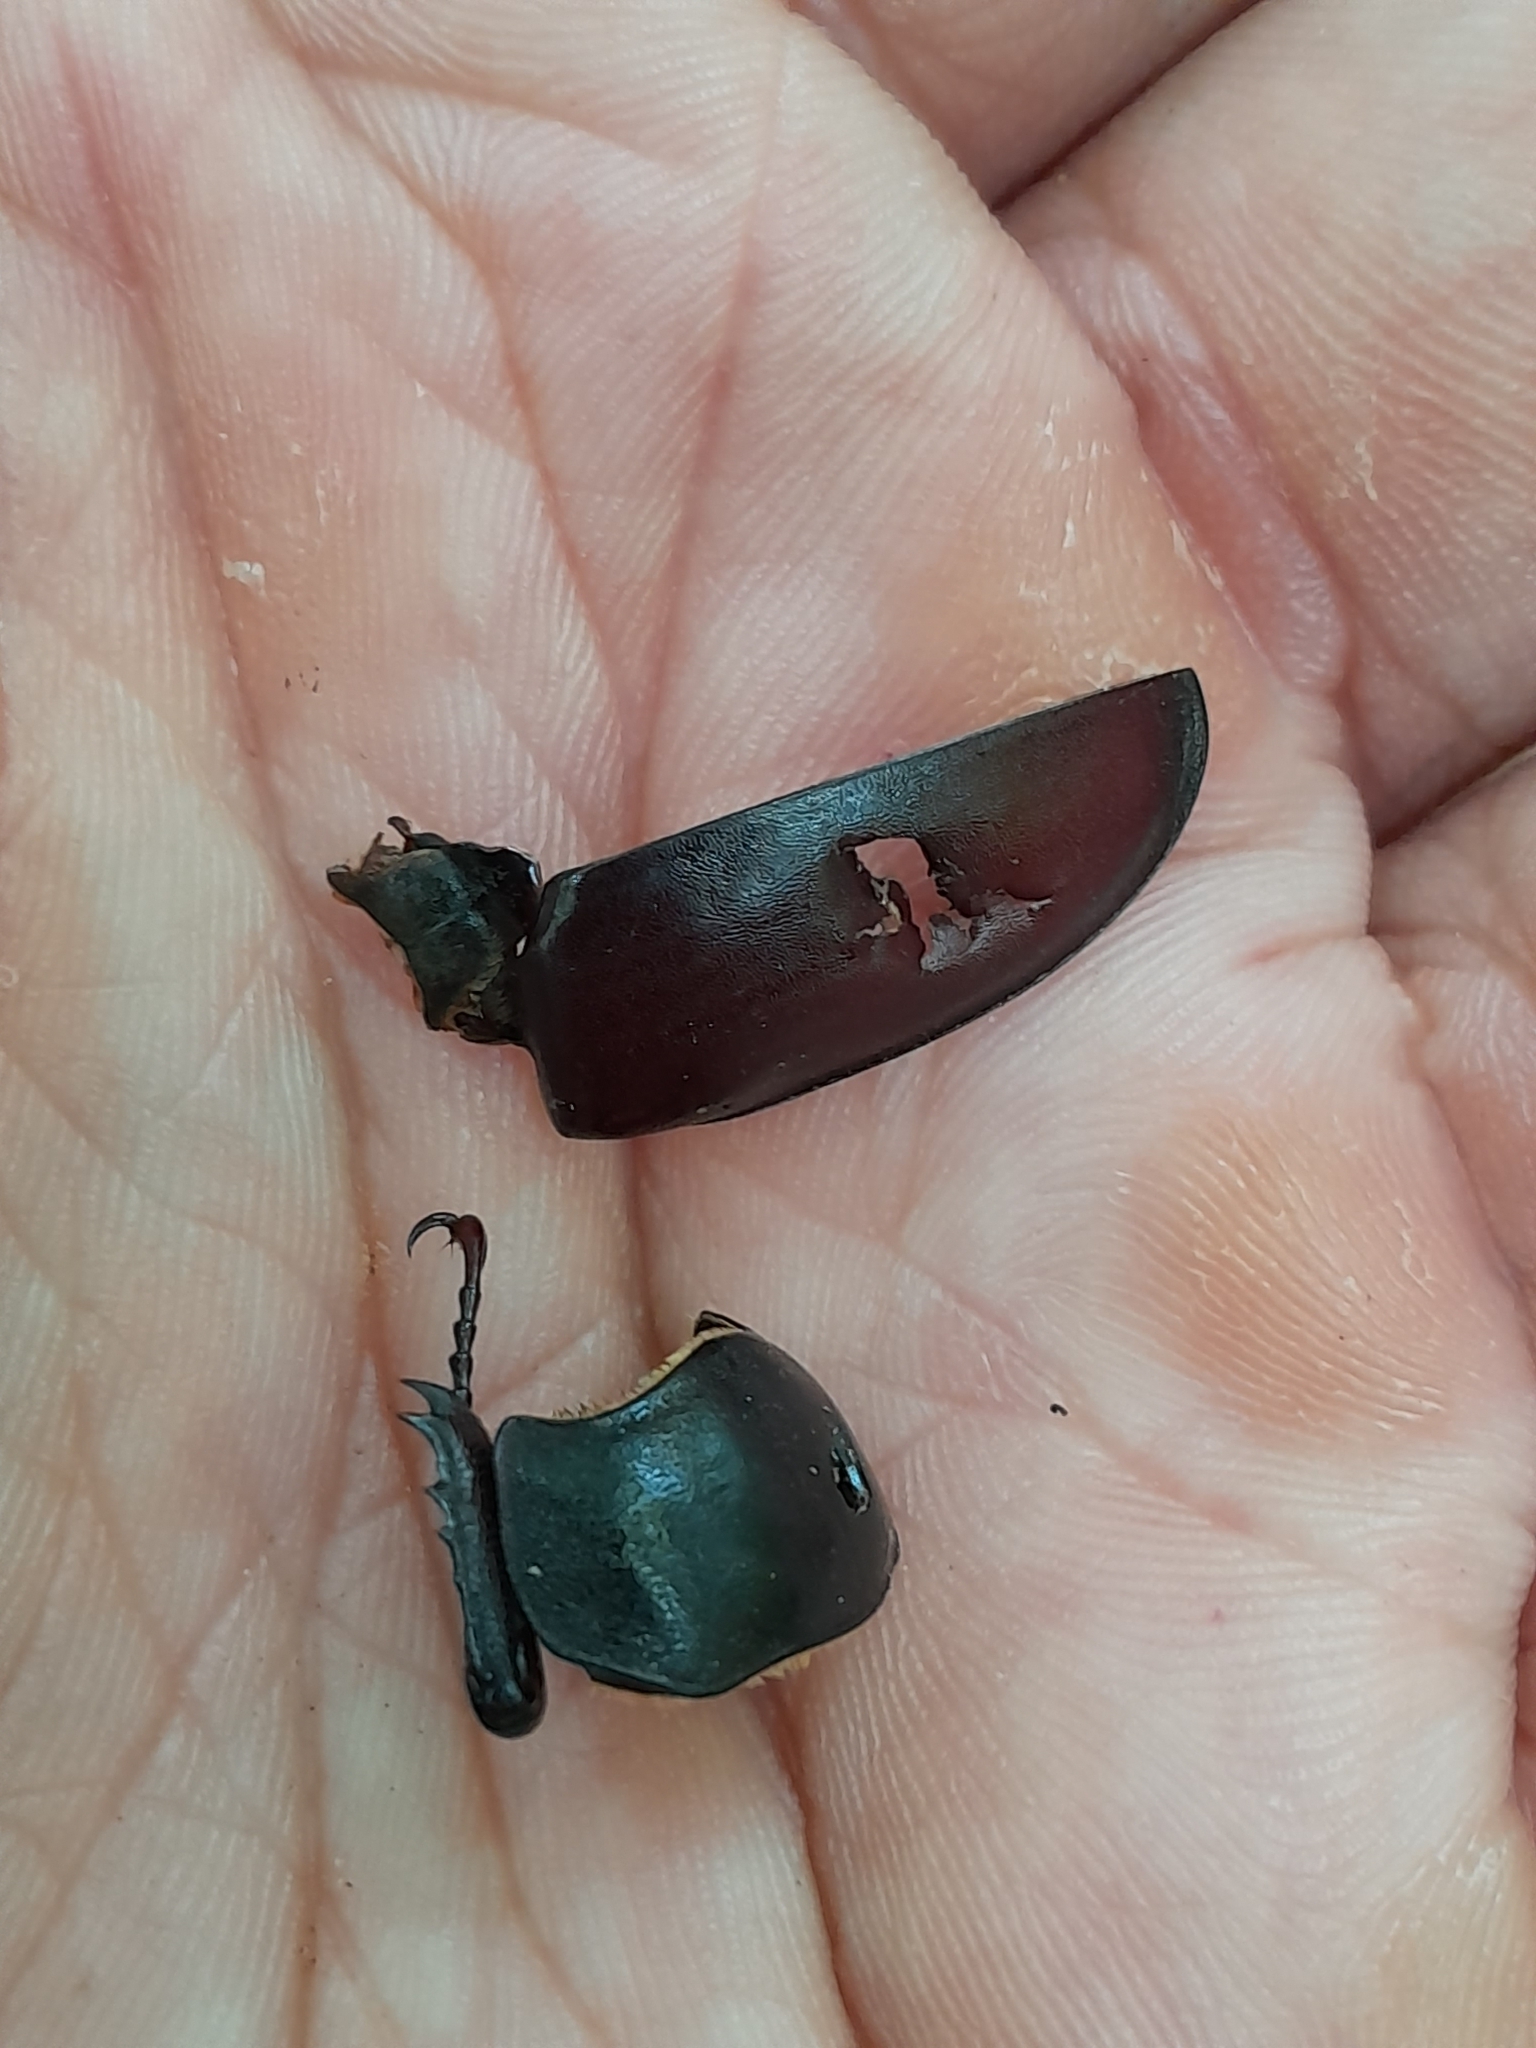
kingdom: Animalia
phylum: Arthropoda
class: Insecta
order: Coleoptera
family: Lucanidae
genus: Lucanus
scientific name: Lucanus cervus
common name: Stag beetle
